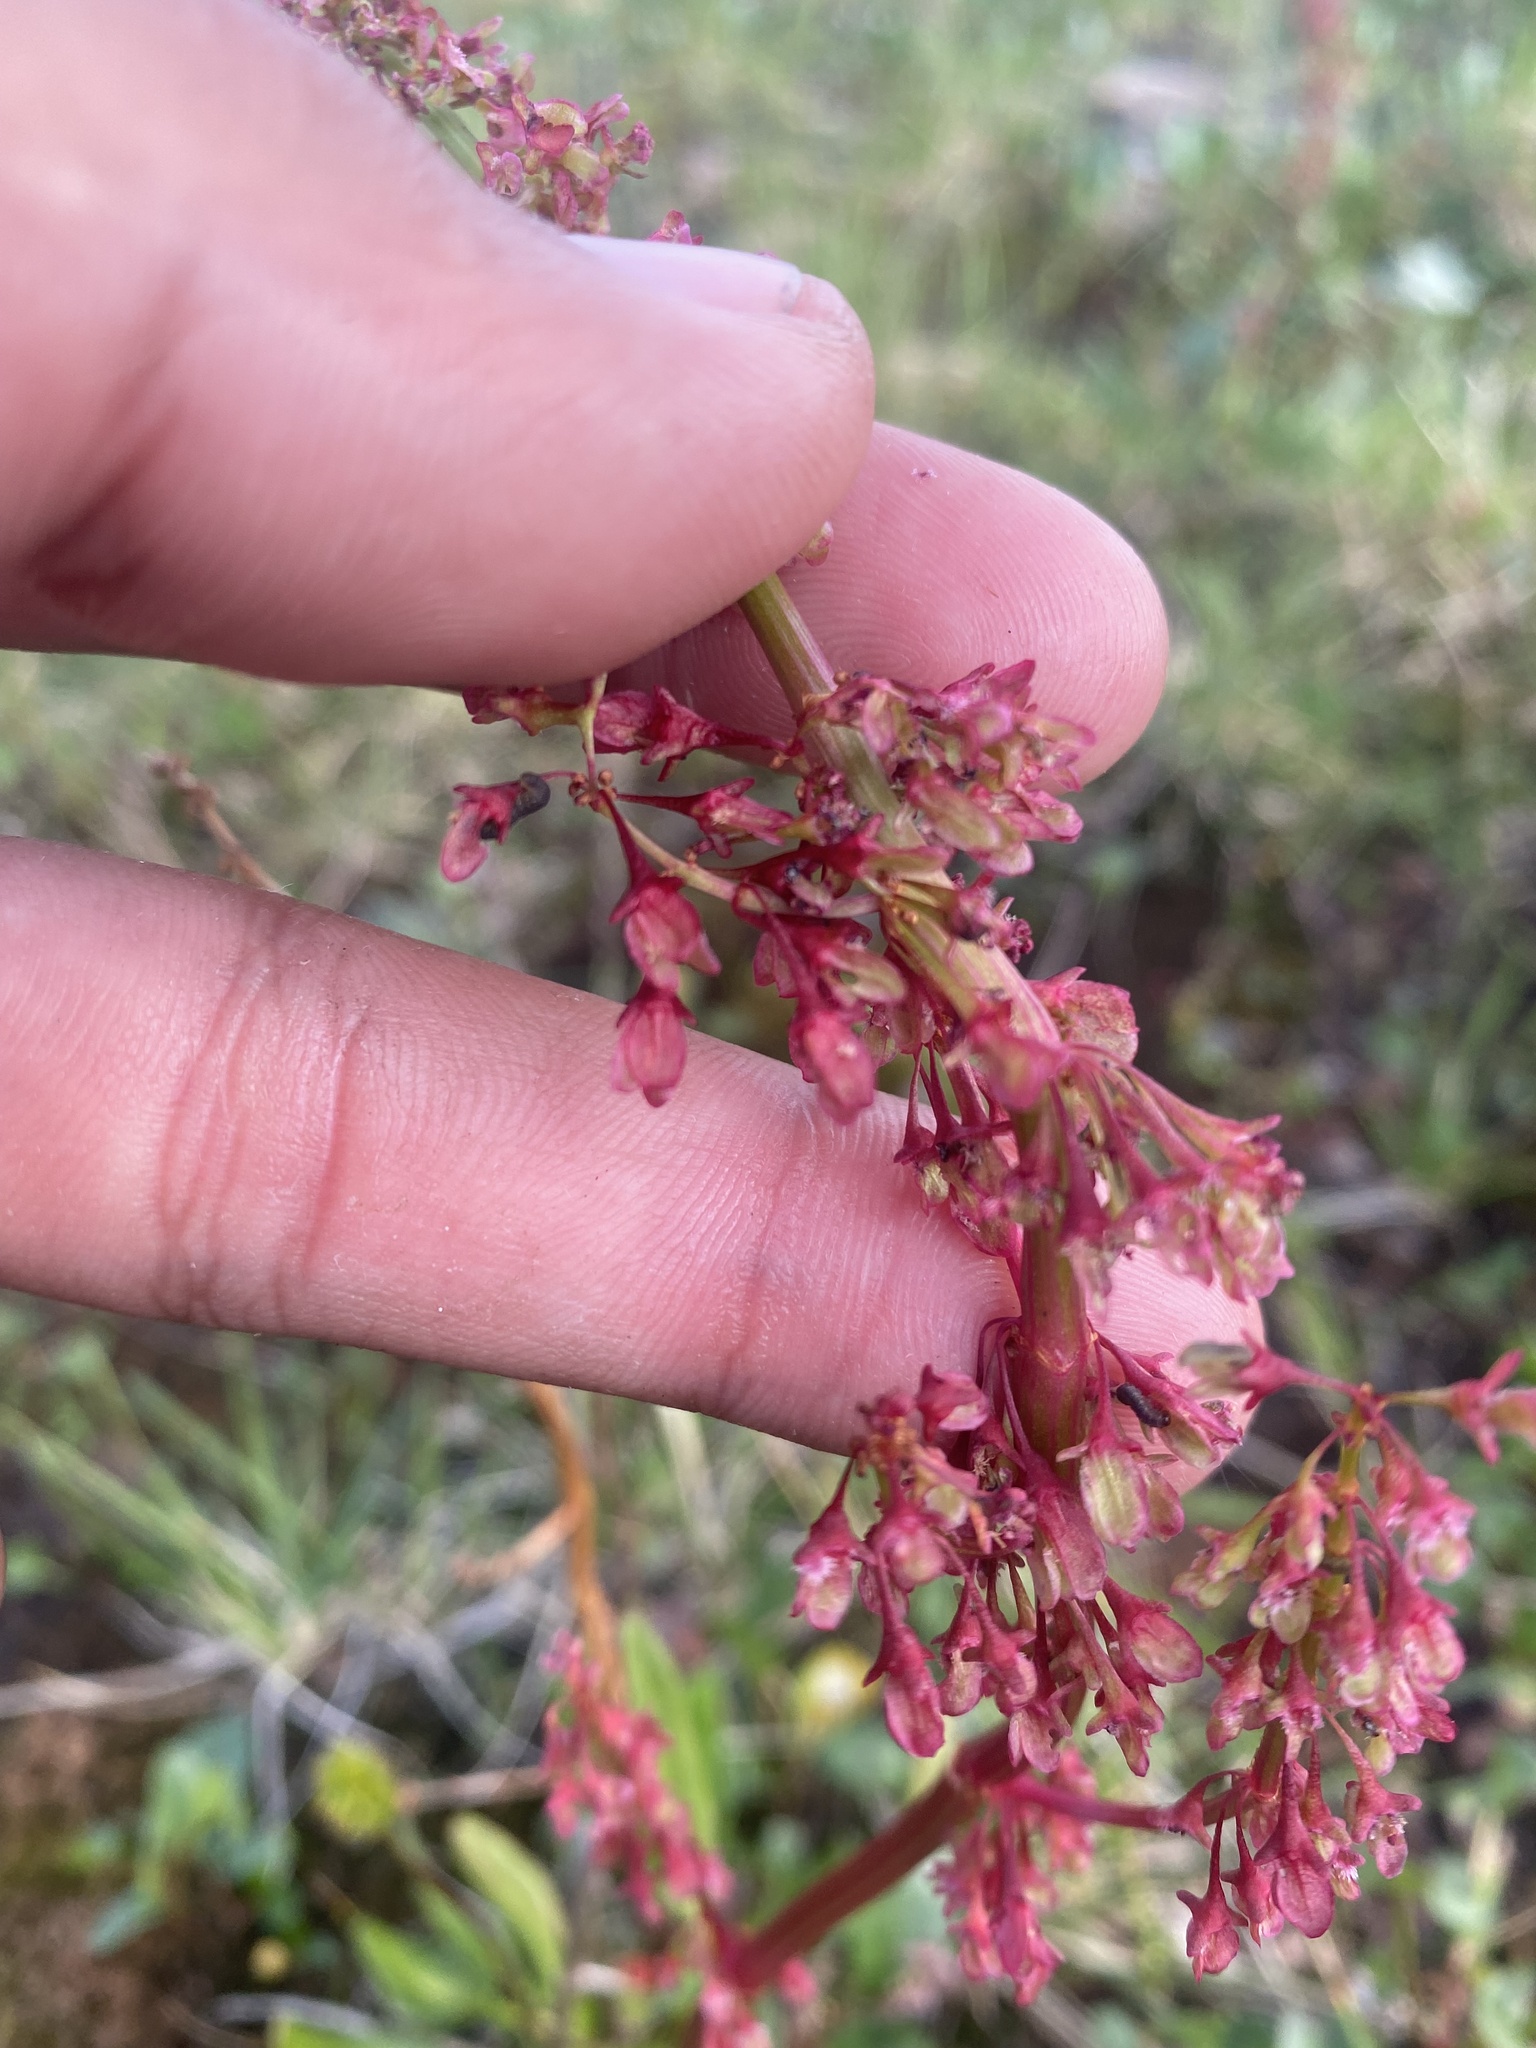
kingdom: Plantae
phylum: Tracheophyta
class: Magnoliopsida
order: Caryophyllales
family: Polygonaceae
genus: Rumex
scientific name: Rumex arcticus
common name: Arctic dock
